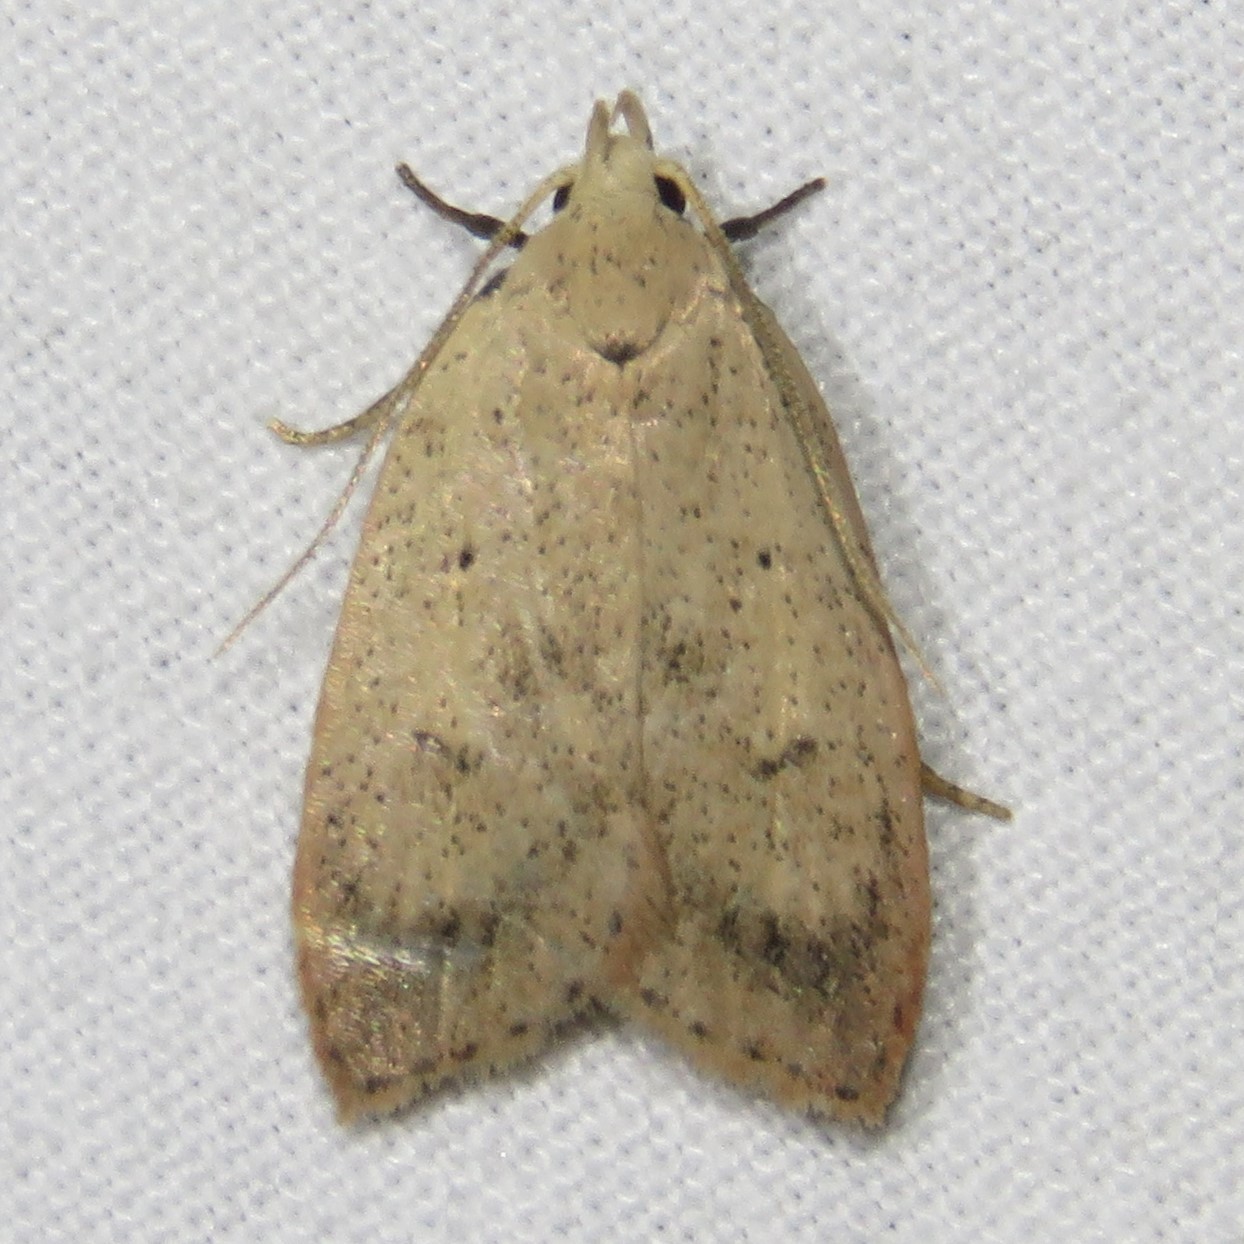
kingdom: Animalia
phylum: Arthropoda
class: Insecta
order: Lepidoptera
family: Peleopodidae
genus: Machimia
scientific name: Machimia tentoriferella
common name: Gold-striped leaftier moth
